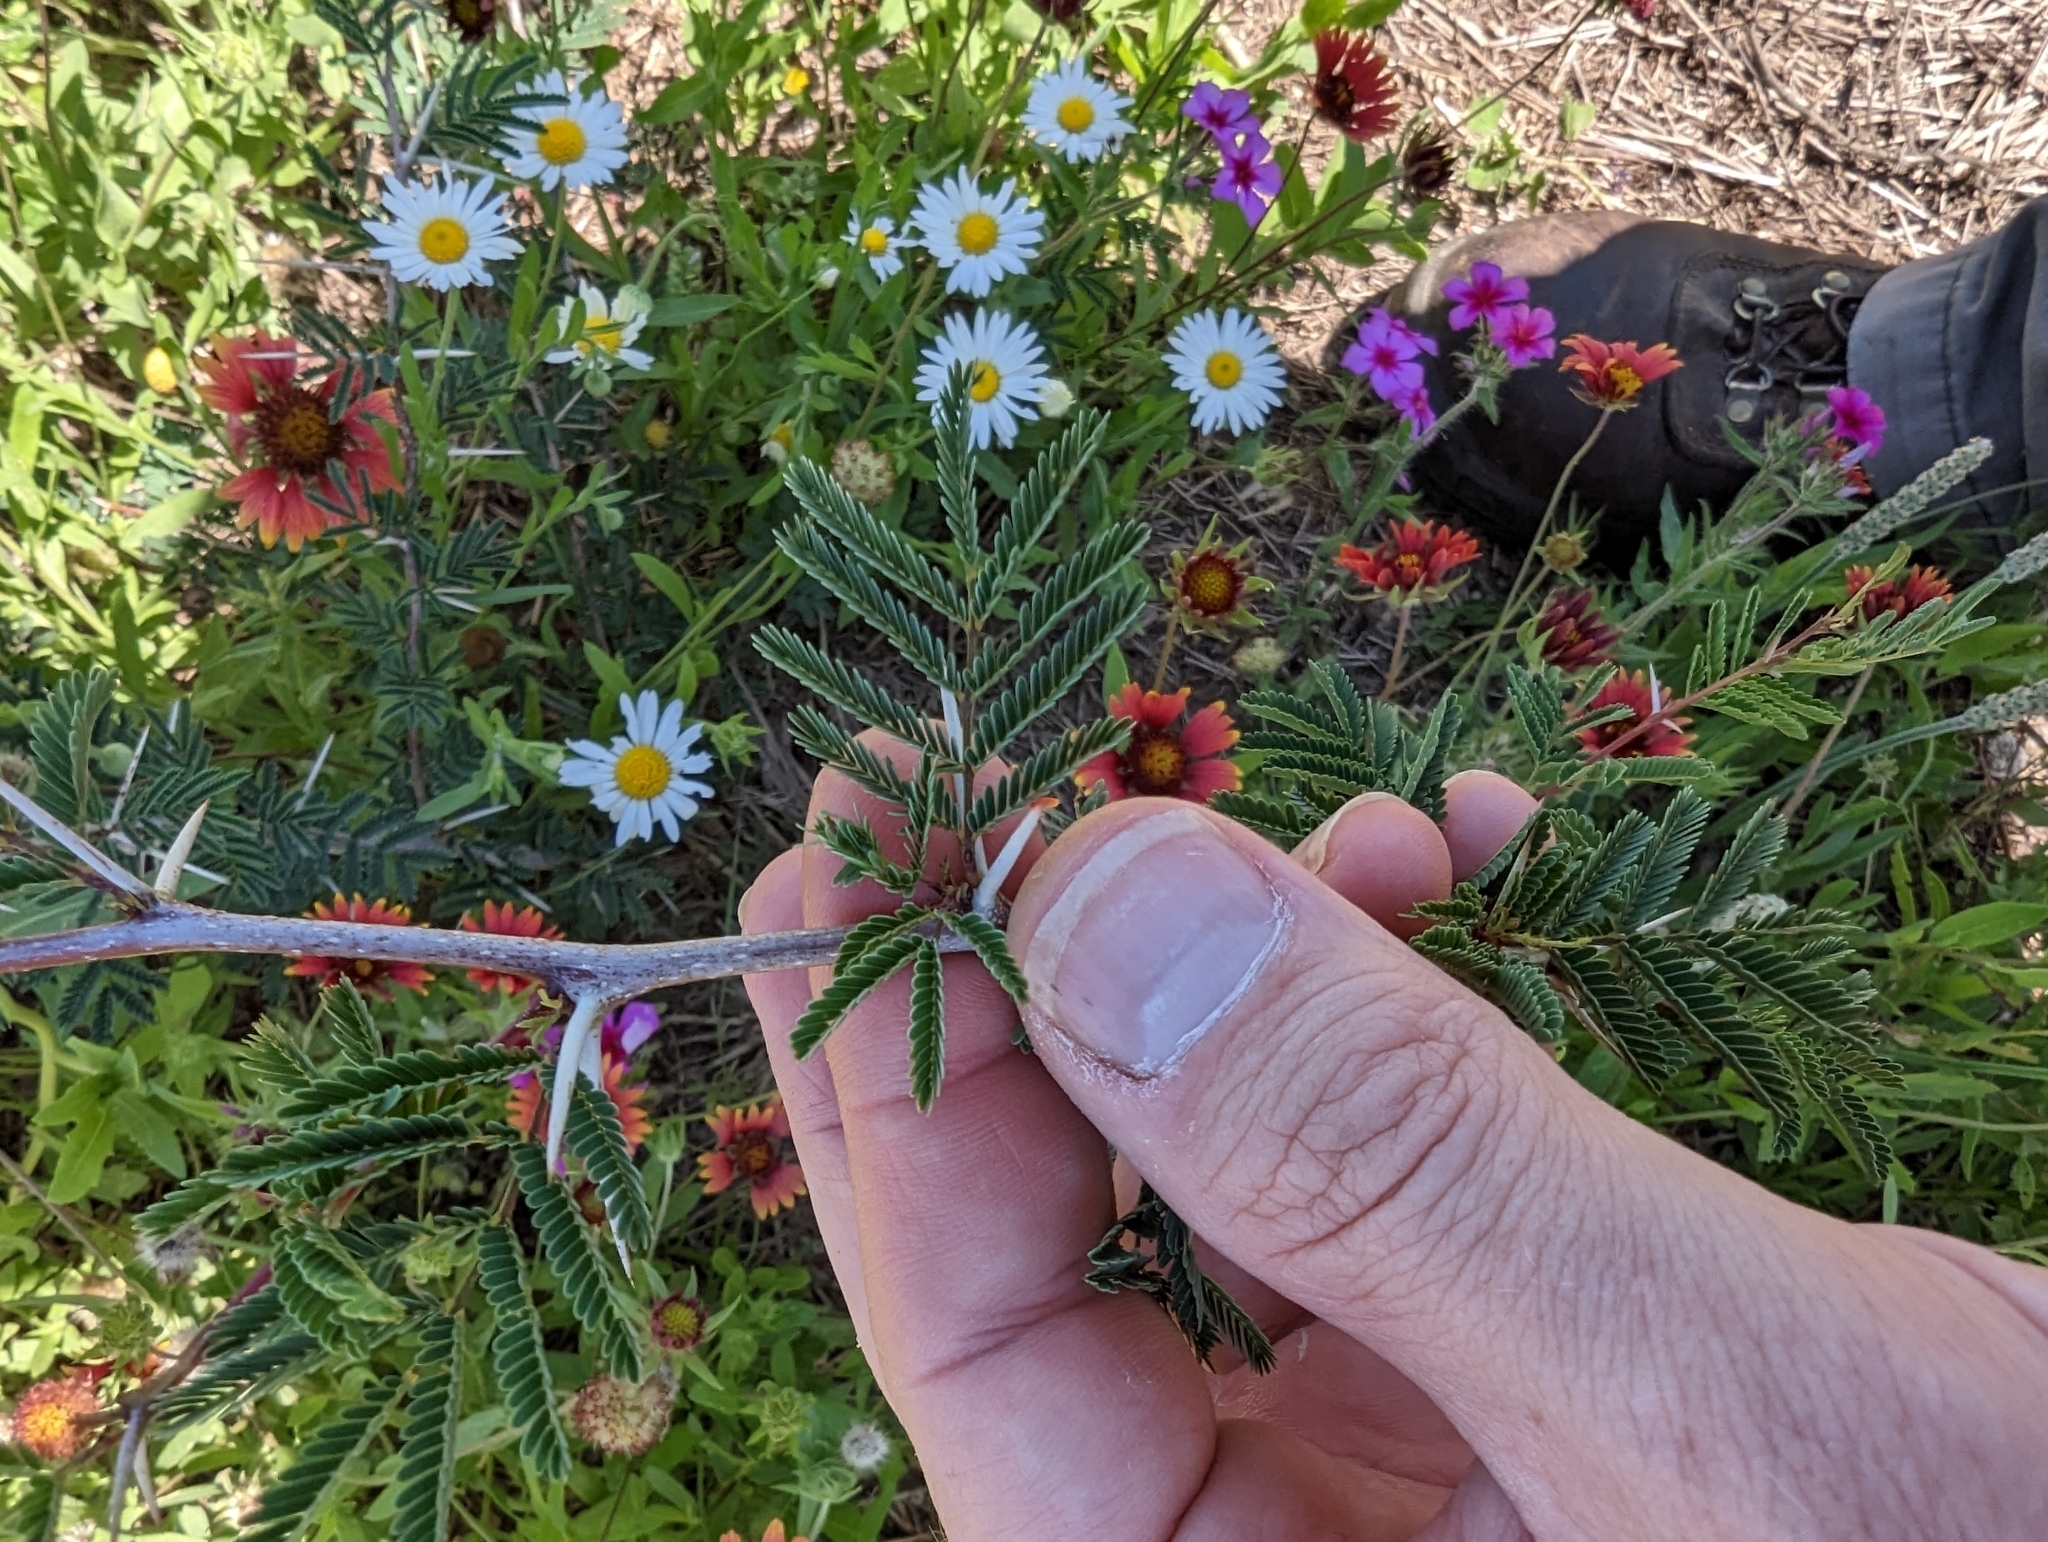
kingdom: Plantae
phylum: Tracheophyta
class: Magnoliopsida
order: Fabales
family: Fabaceae
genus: Vachellia
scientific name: Vachellia farnesiana
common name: Sweet acacia
